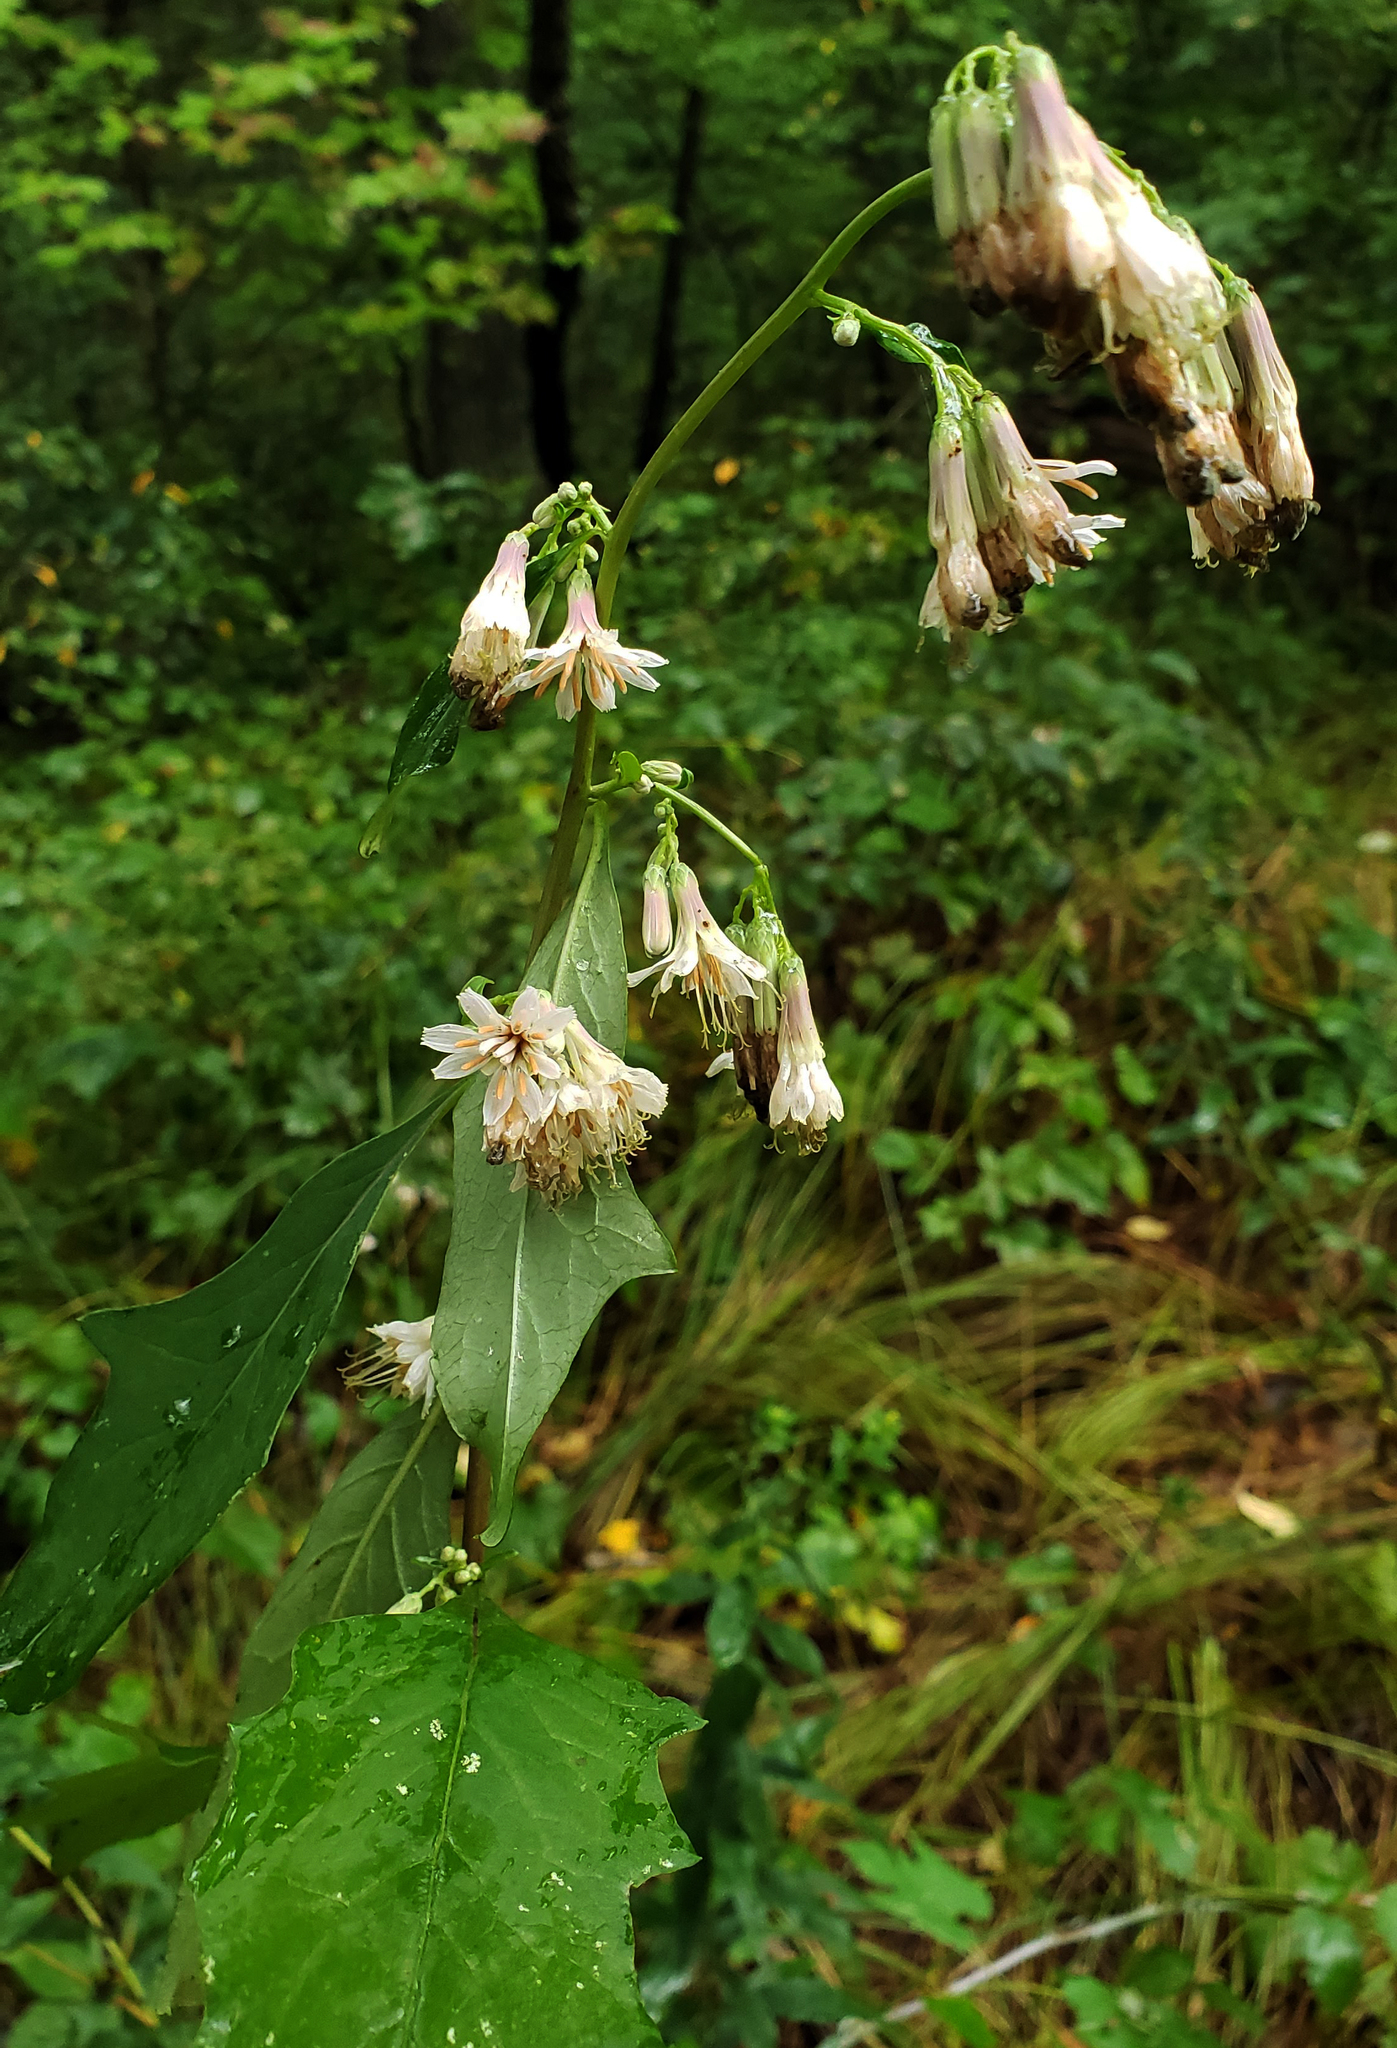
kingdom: Plantae
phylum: Tracheophyta
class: Magnoliopsida
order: Asterales
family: Asteraceae
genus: Nabalus
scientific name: Nabalus albus
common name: White rattlesnakeroot
